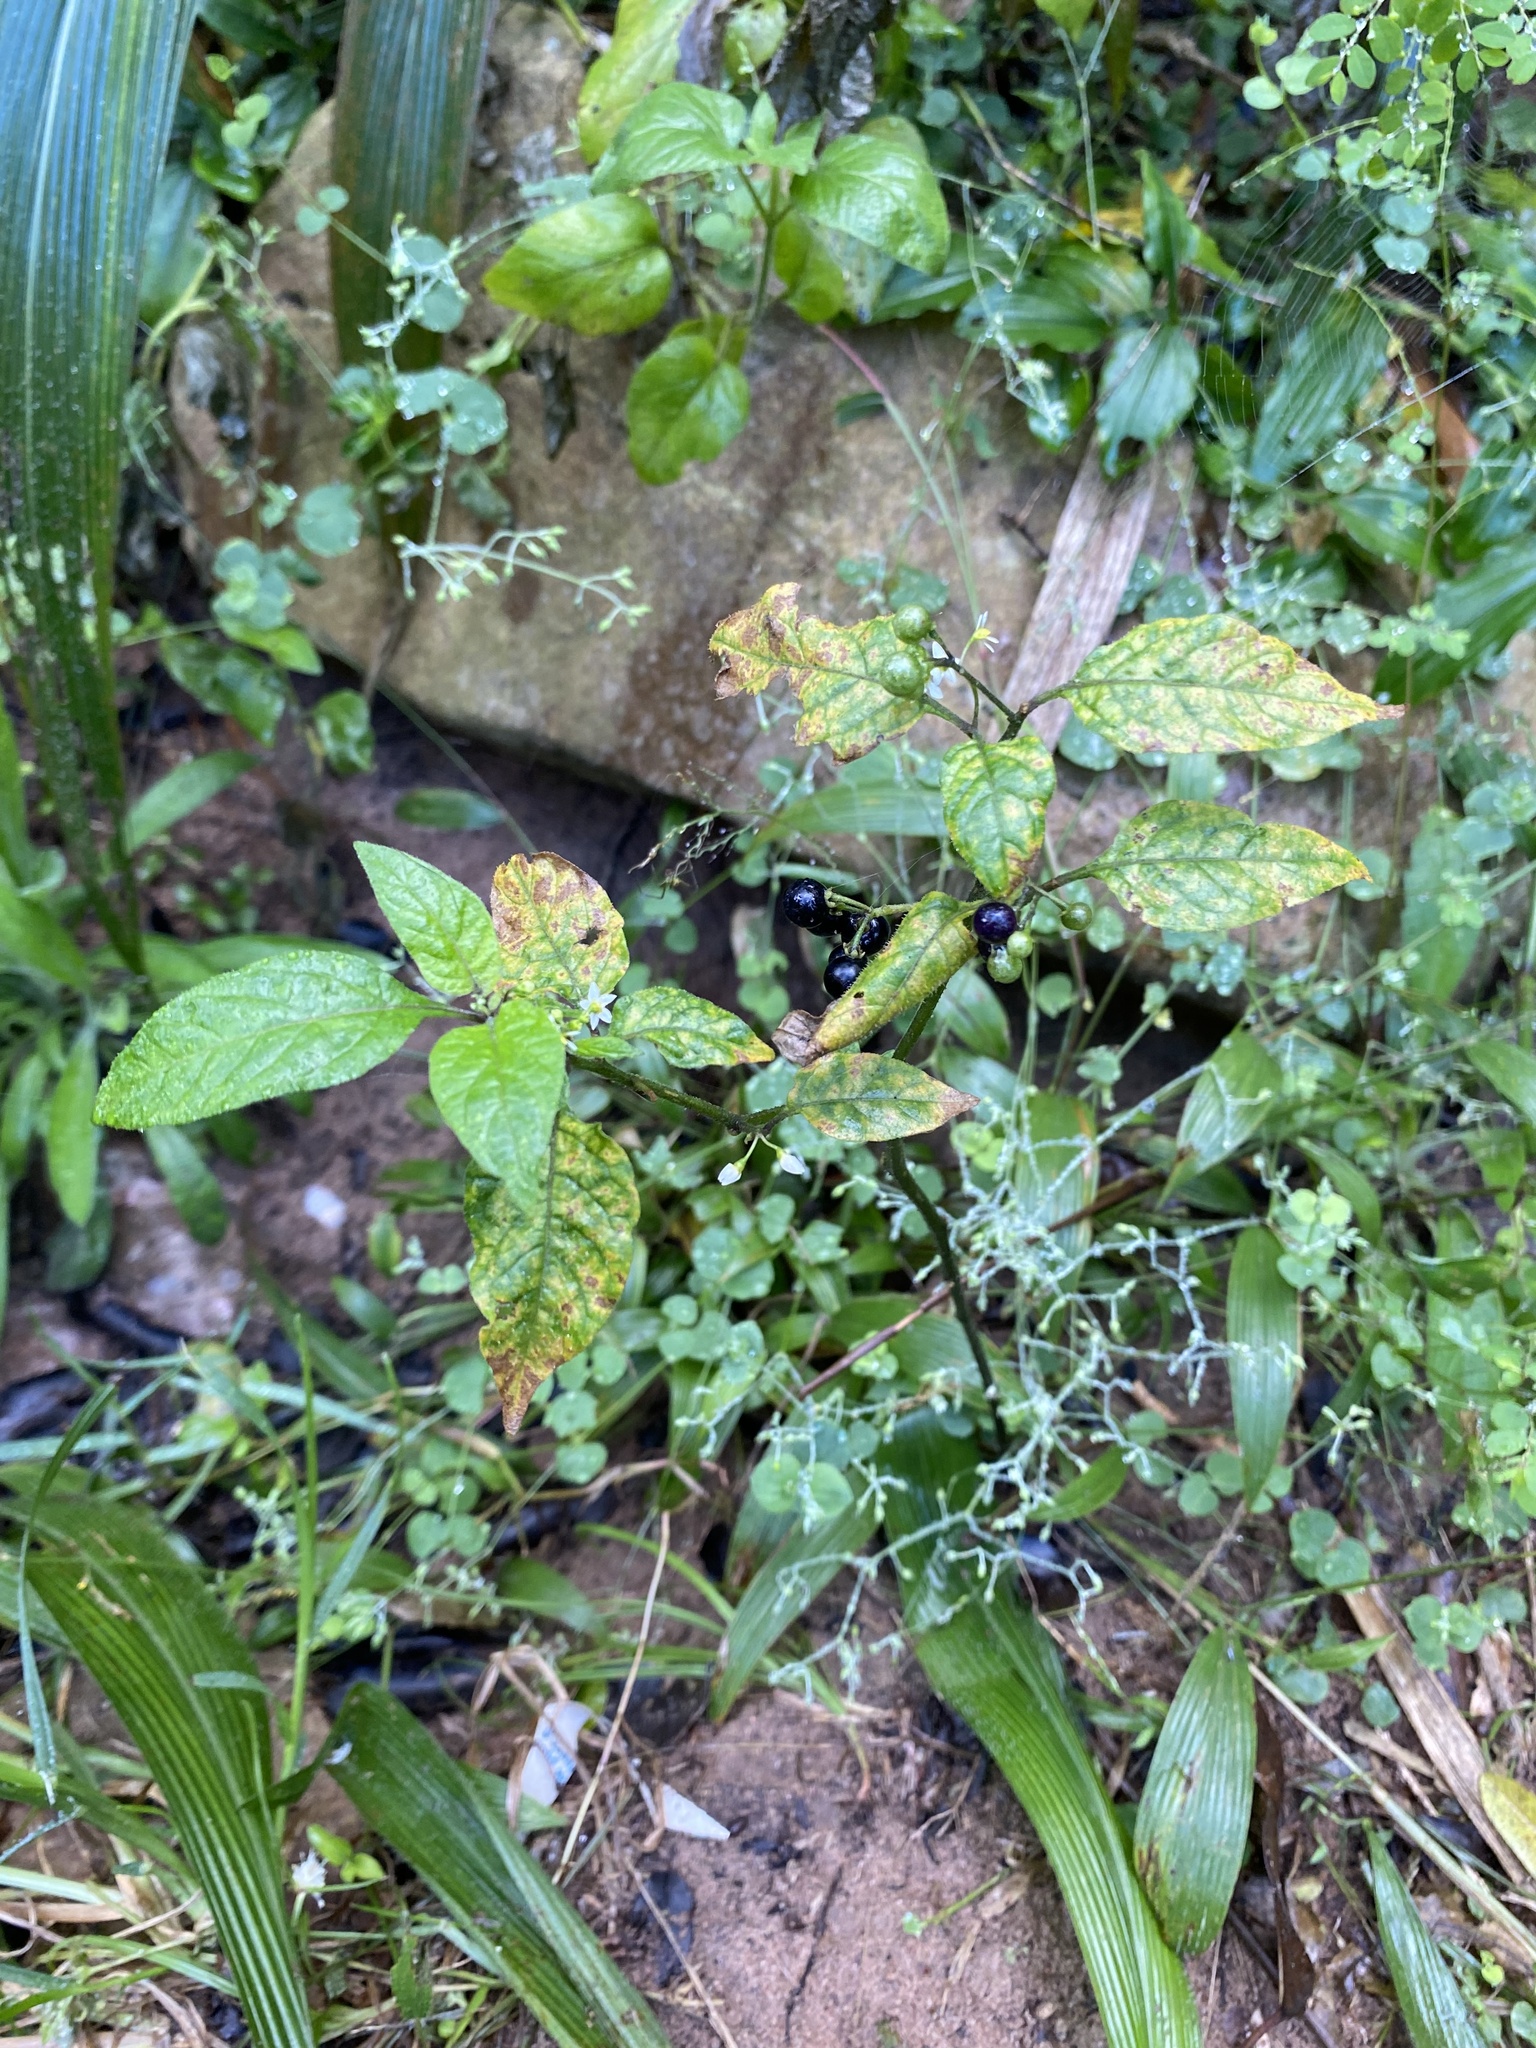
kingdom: Plantae
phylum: Tracheophyta
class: Magnoliopsida
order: Solanales
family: Solanaceae
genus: Solanum
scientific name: Solanum americanum
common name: American black nightshade
